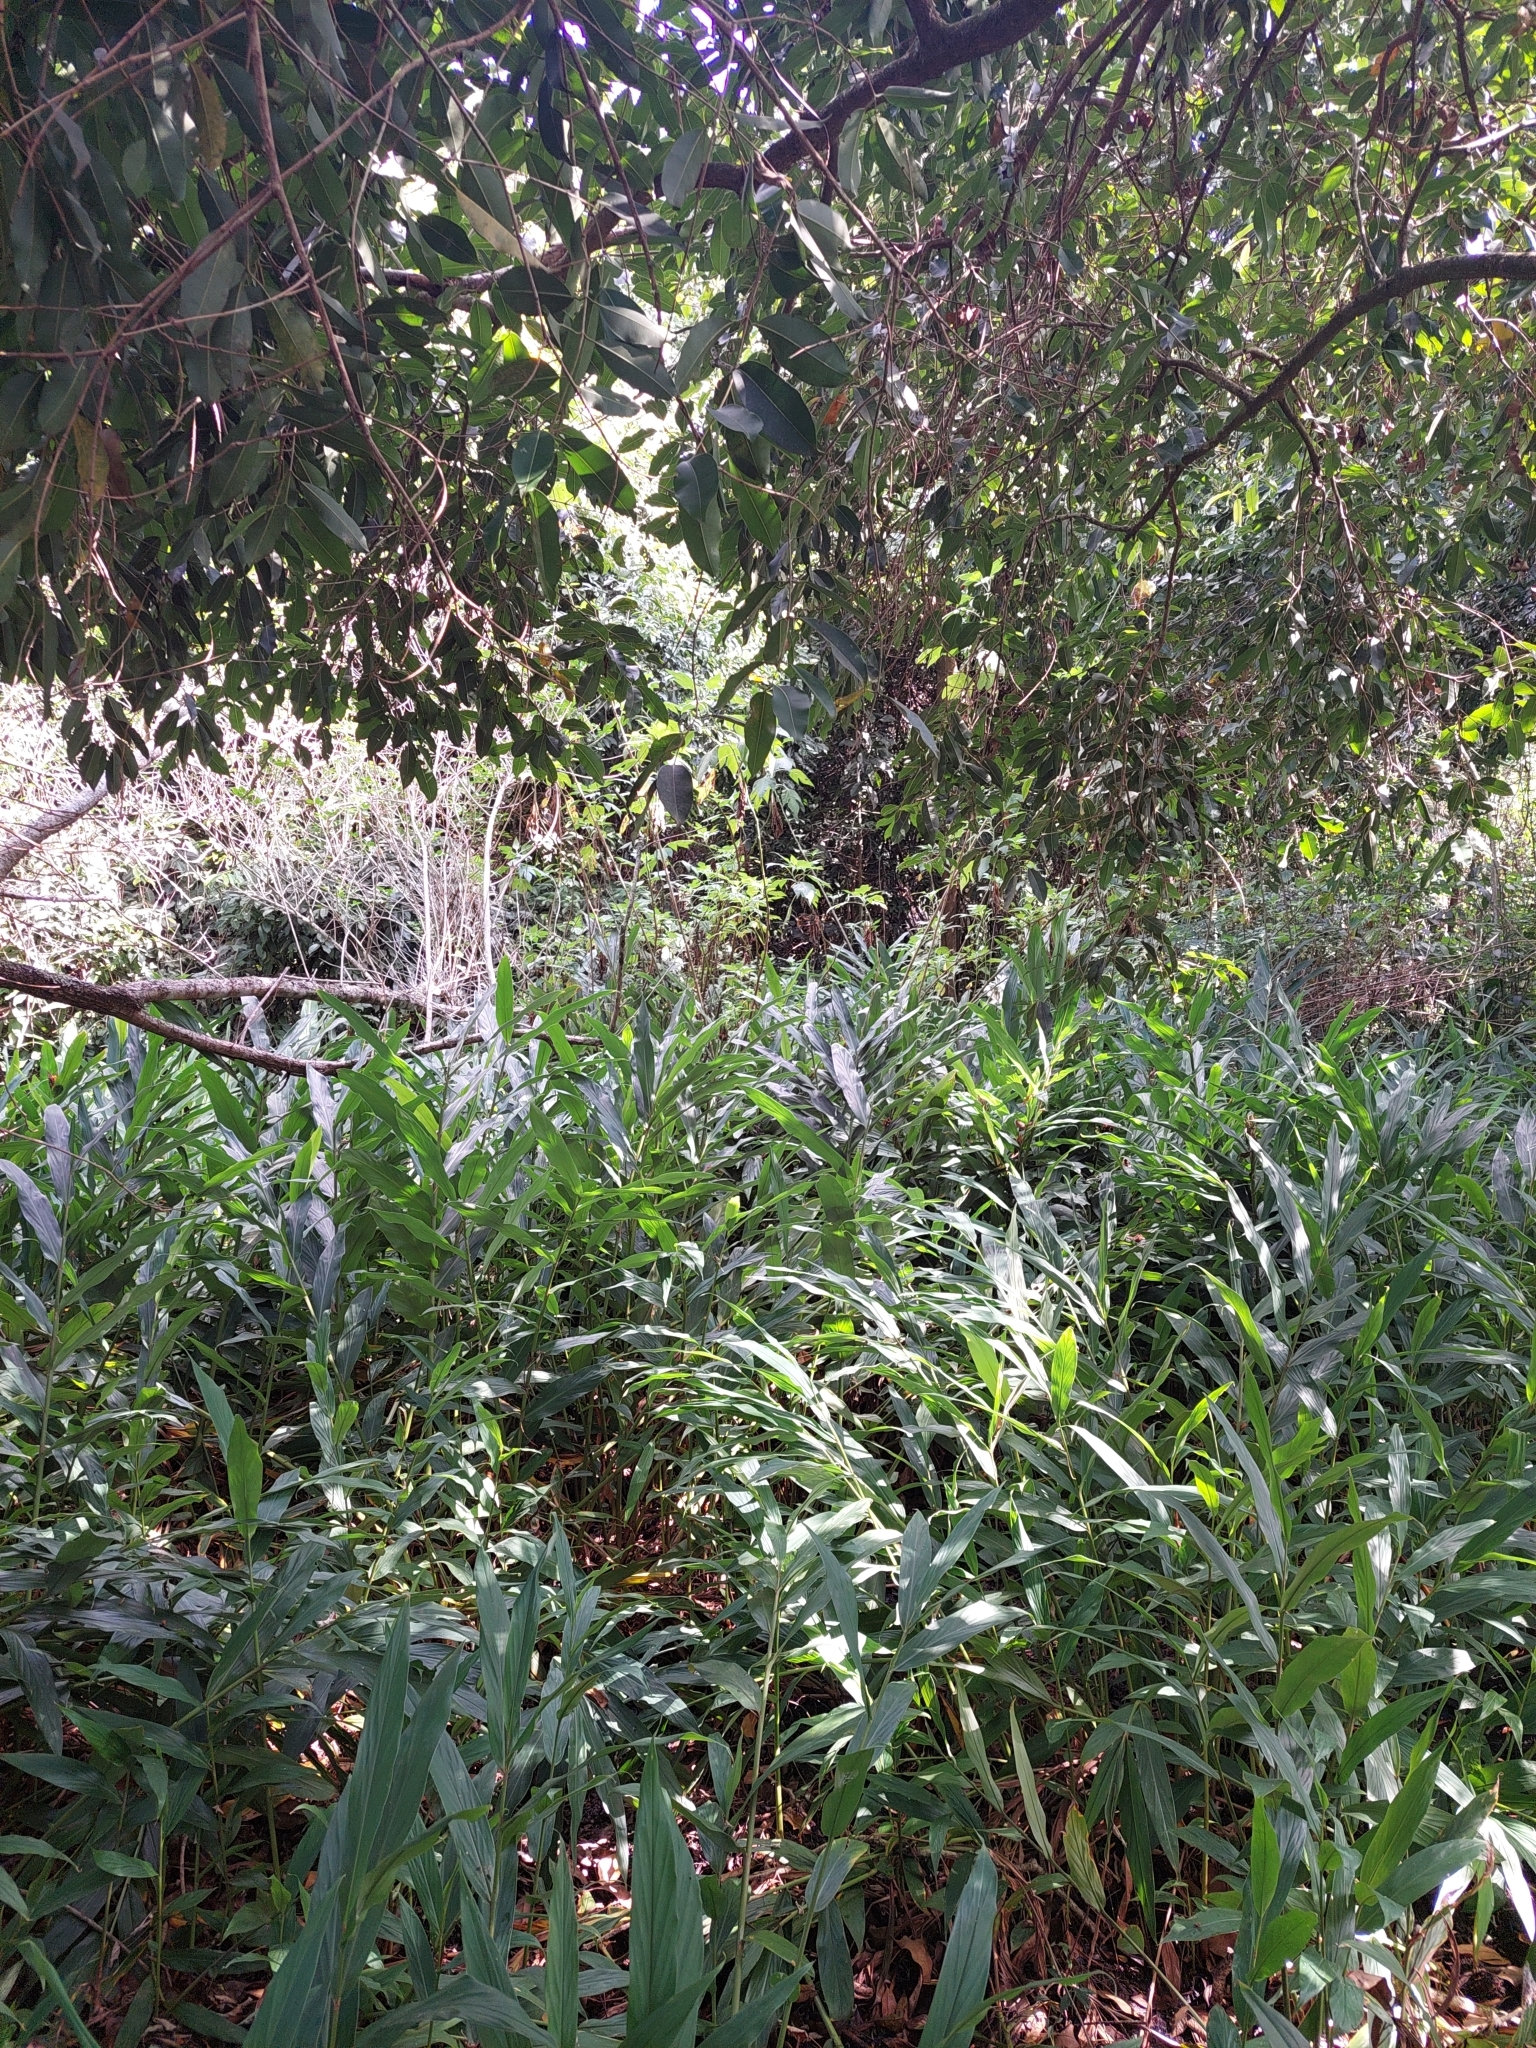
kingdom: Plantae
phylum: Tracheophyta
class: Liliopsida
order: Zingiberales
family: Zingiberaceae
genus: Hedychium
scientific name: Hedychium coronarium
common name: White garland-lily
